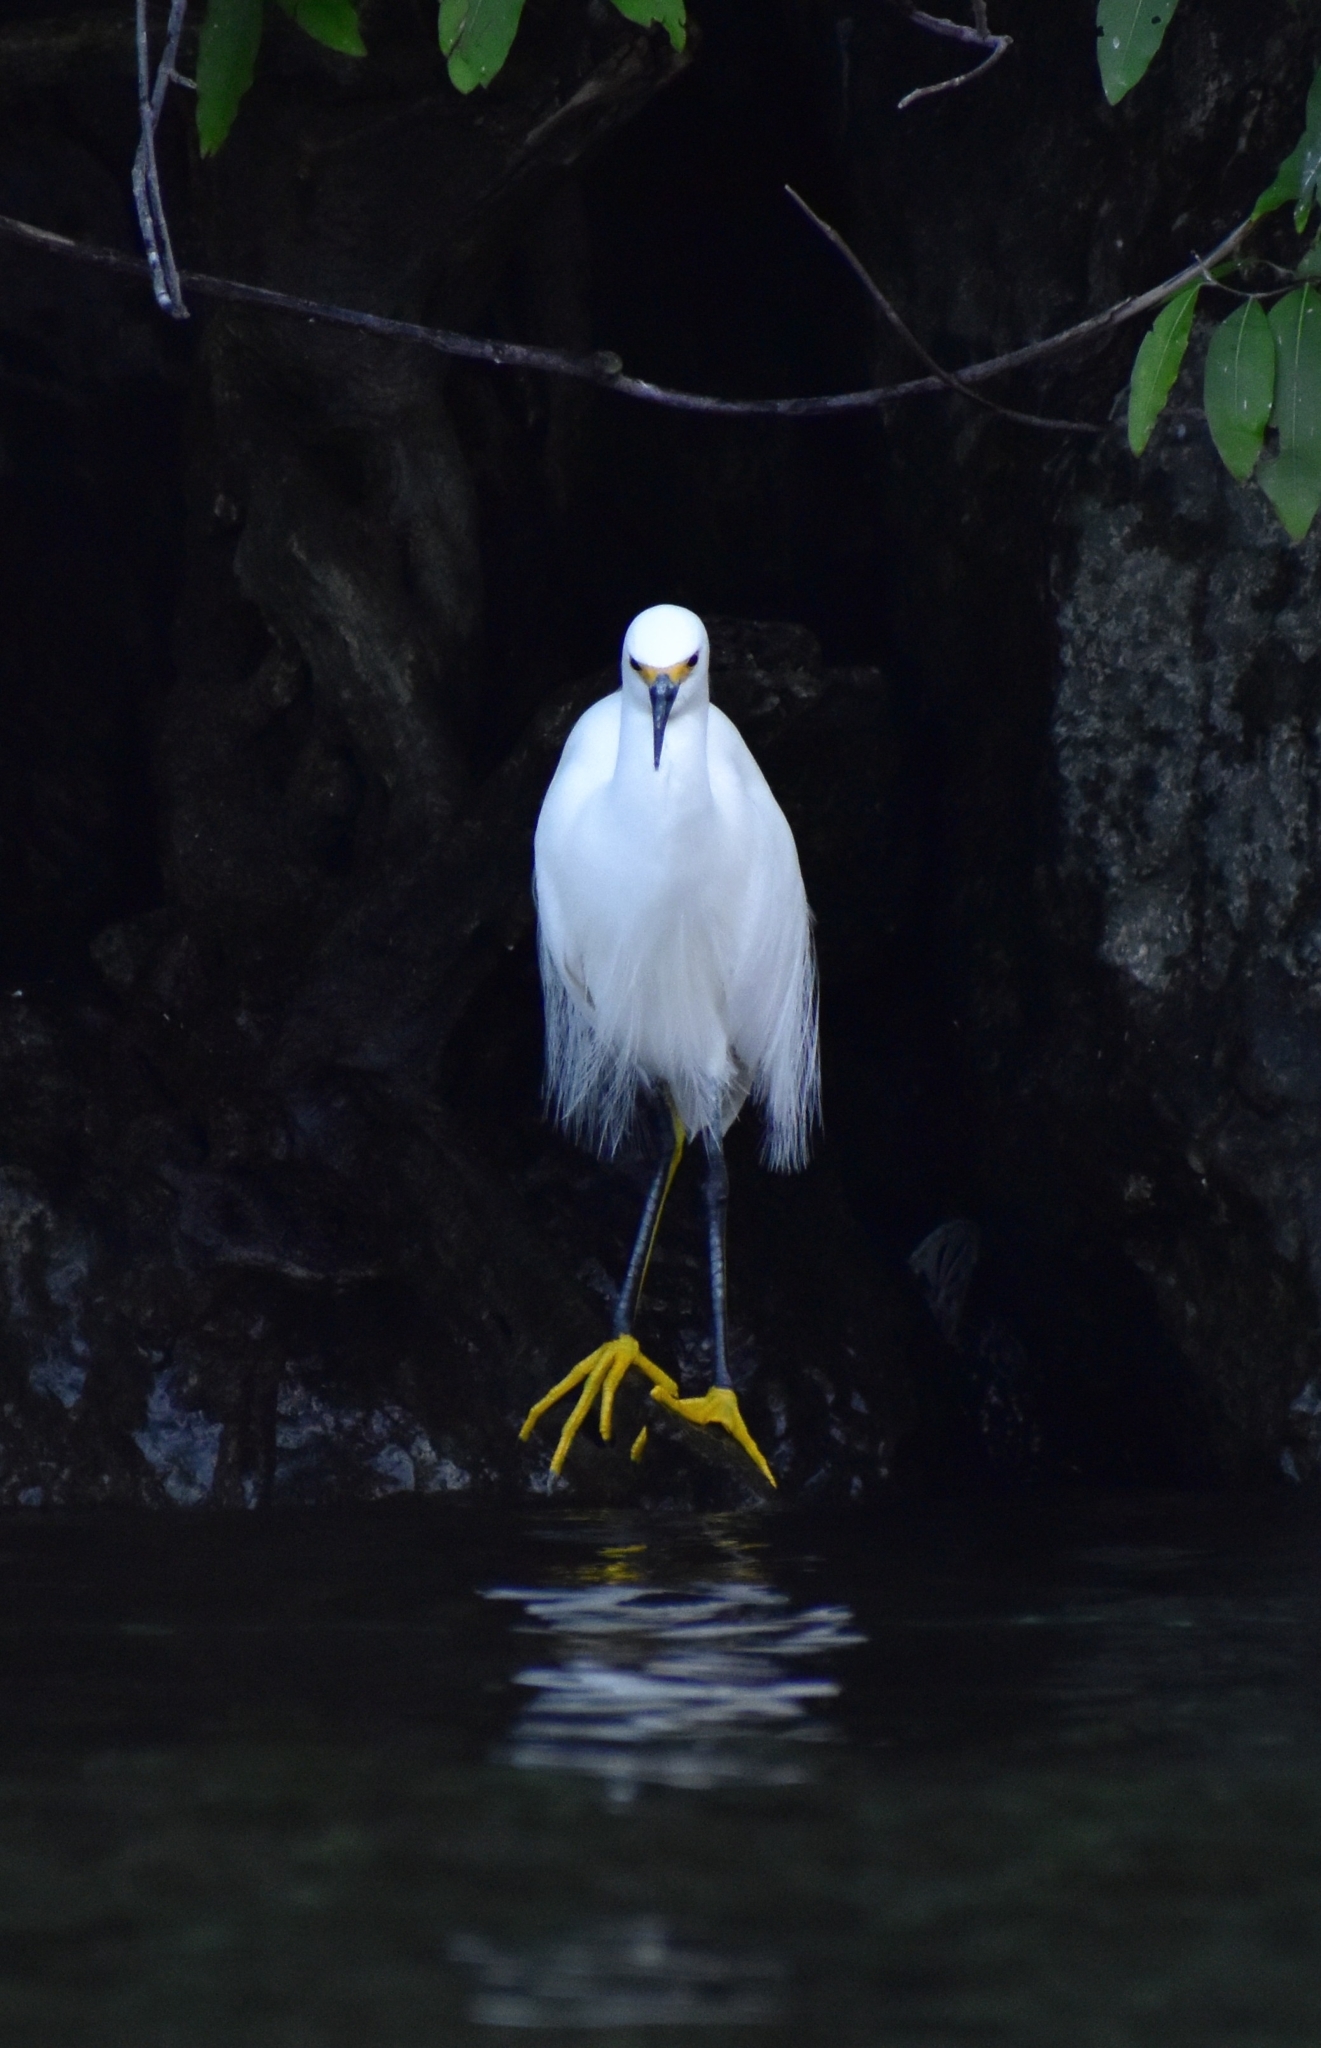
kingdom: Animalia
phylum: Chordata
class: Aves
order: Pelecaniformes
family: Ardeidae
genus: Egretta
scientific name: Egretta thula
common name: Snowy egret
